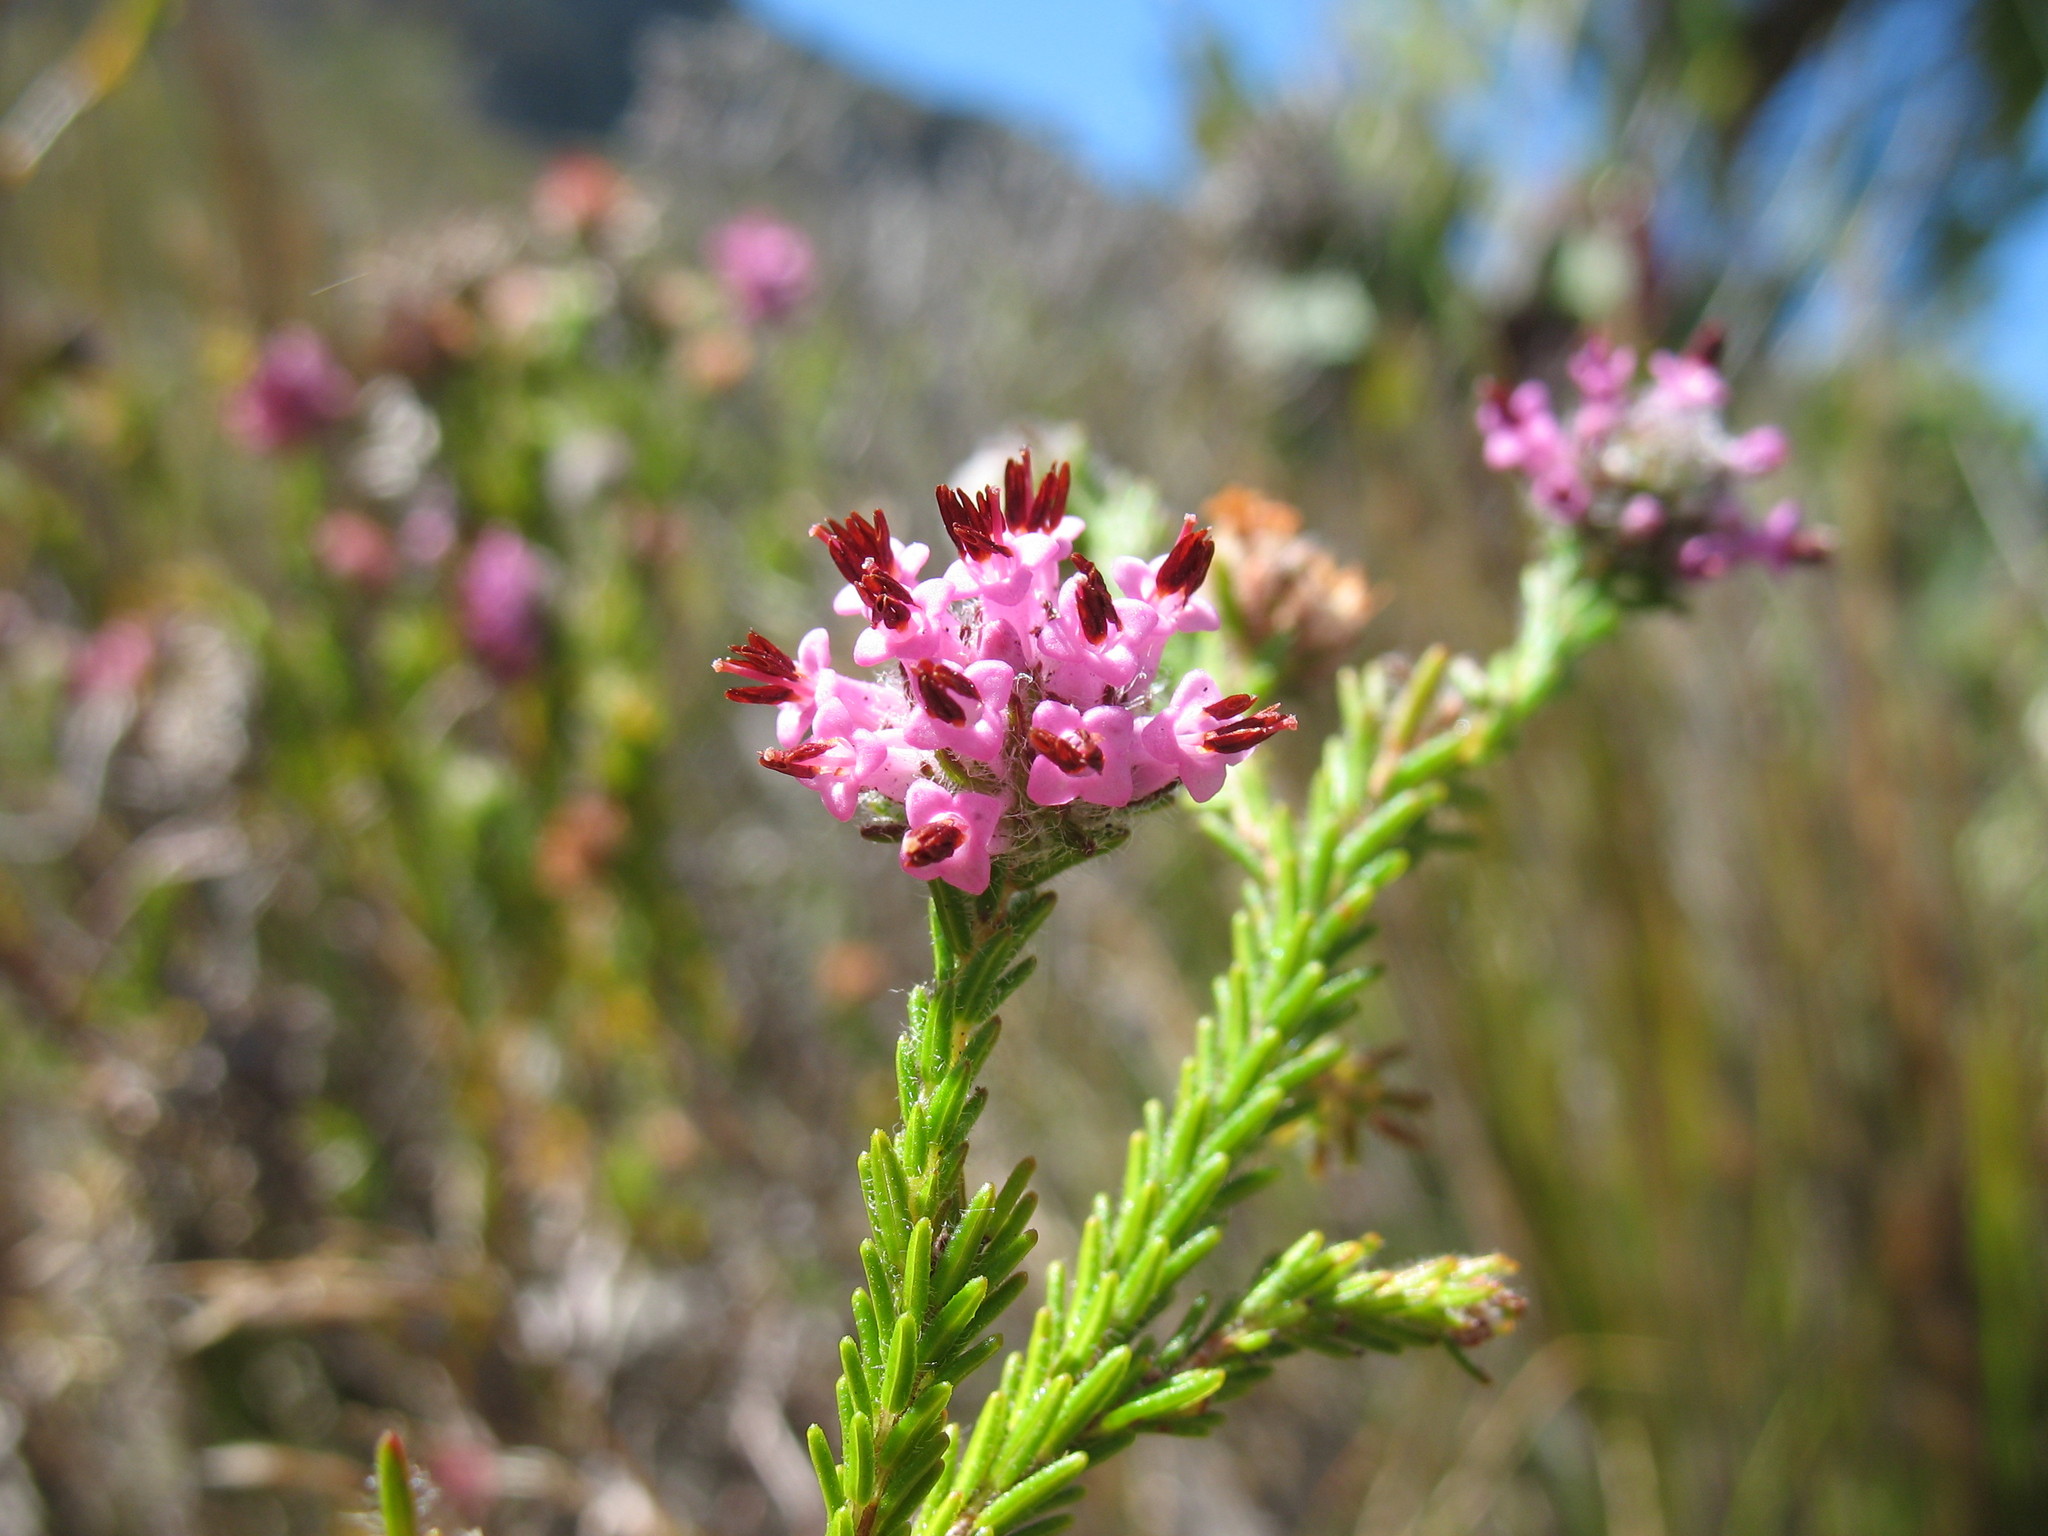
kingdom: Plantae
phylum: Tracheophyta
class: Magnoliopsida
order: Ericales
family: Ericaceae
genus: Erica
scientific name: Erica barbigeroides
